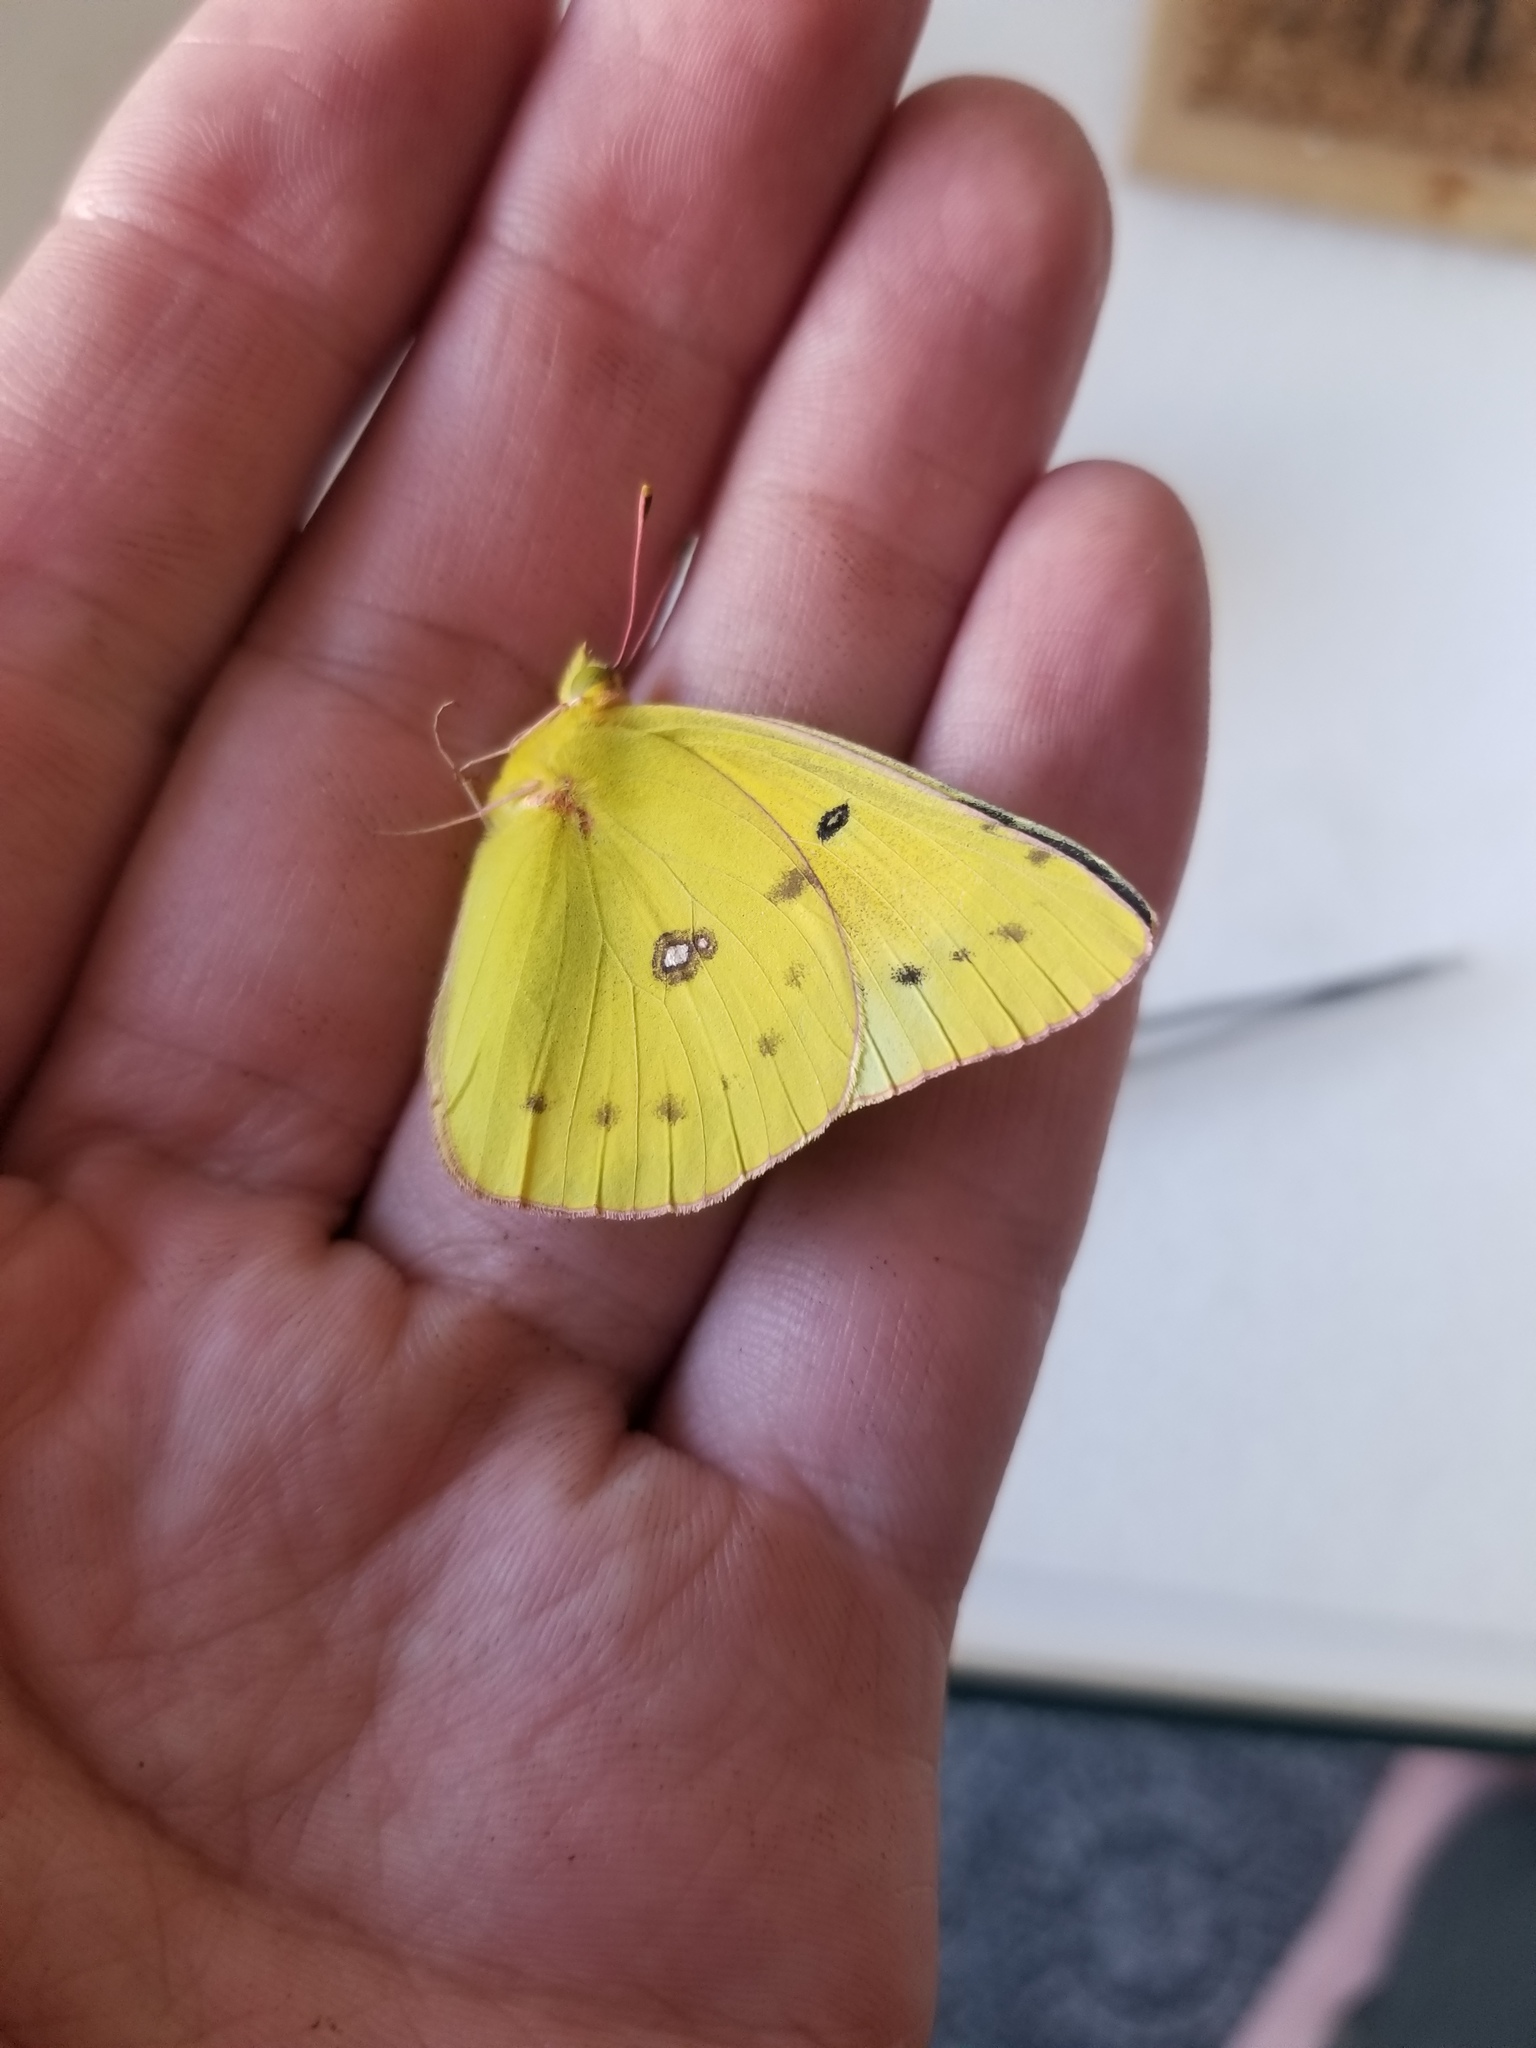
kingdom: Animalia
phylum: Arthropoda
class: Insecta
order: Lepidoptera
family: Pieridae
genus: Colias
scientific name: Colias eurytheme
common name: Alfalfa butterfly
